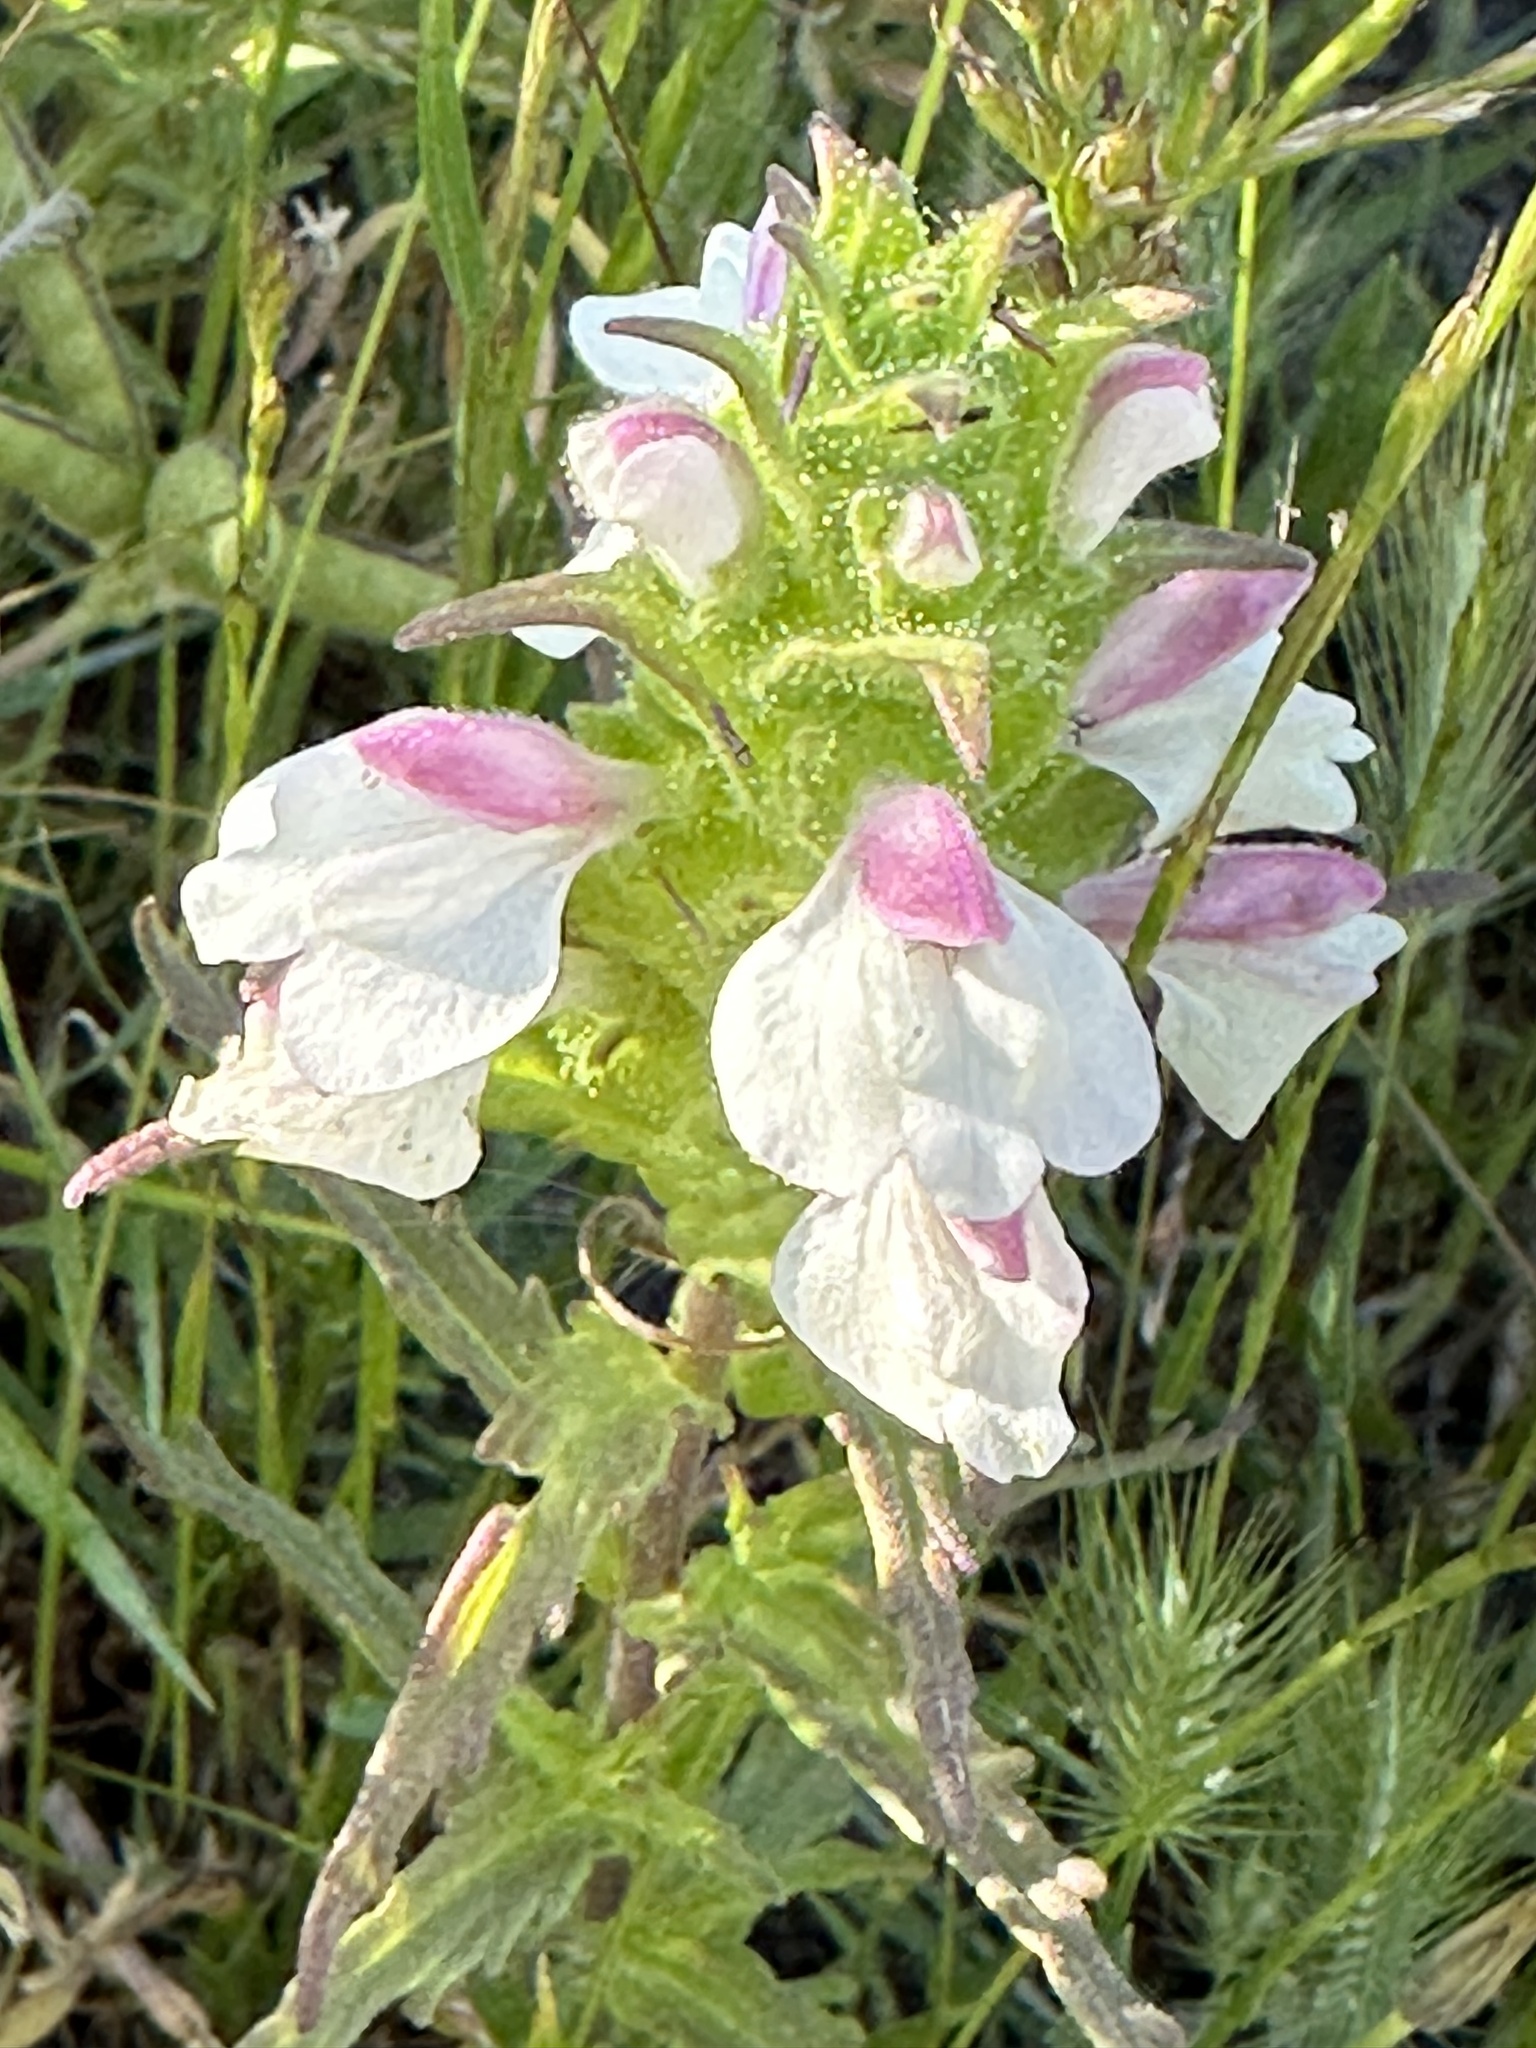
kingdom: Plantae
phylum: Tracheophyta
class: Magnoliopsida
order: Lamiales
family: Orobanchaceae
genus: Bellardia
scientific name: Bellardia trixago
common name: Mediterranean lineseed
